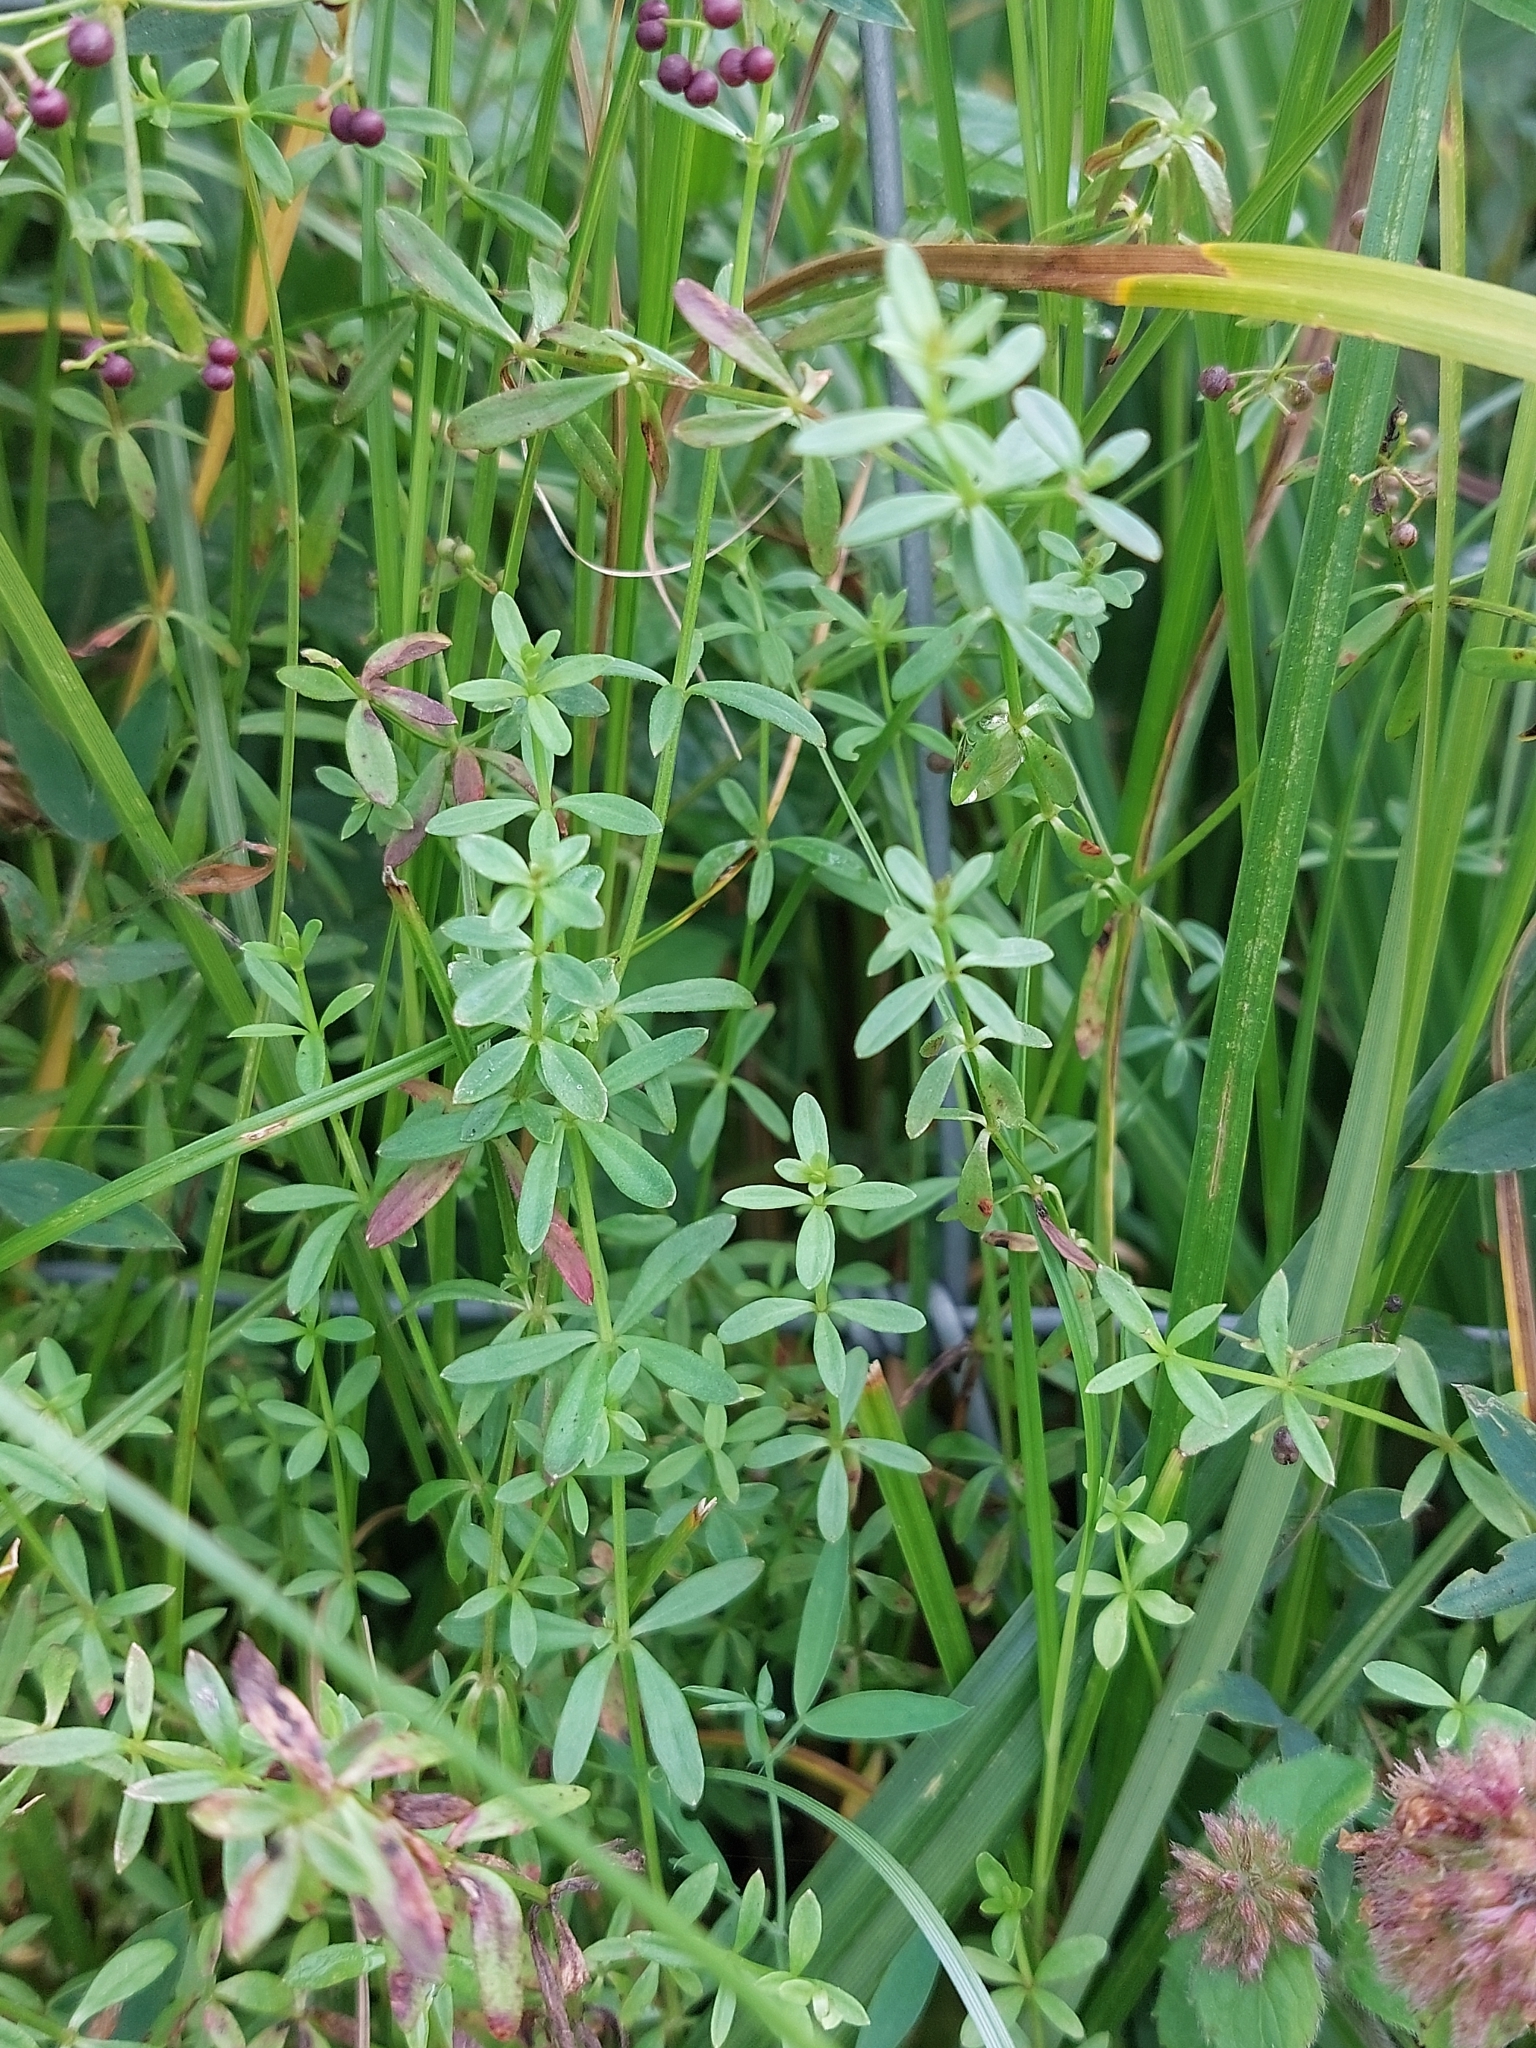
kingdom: Plantae
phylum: Tracheophyta
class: Magnoliopsida
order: Gentianales
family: Rubiaceae
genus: Galium
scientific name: Galium palustre
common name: Common marsh-bedstraw
